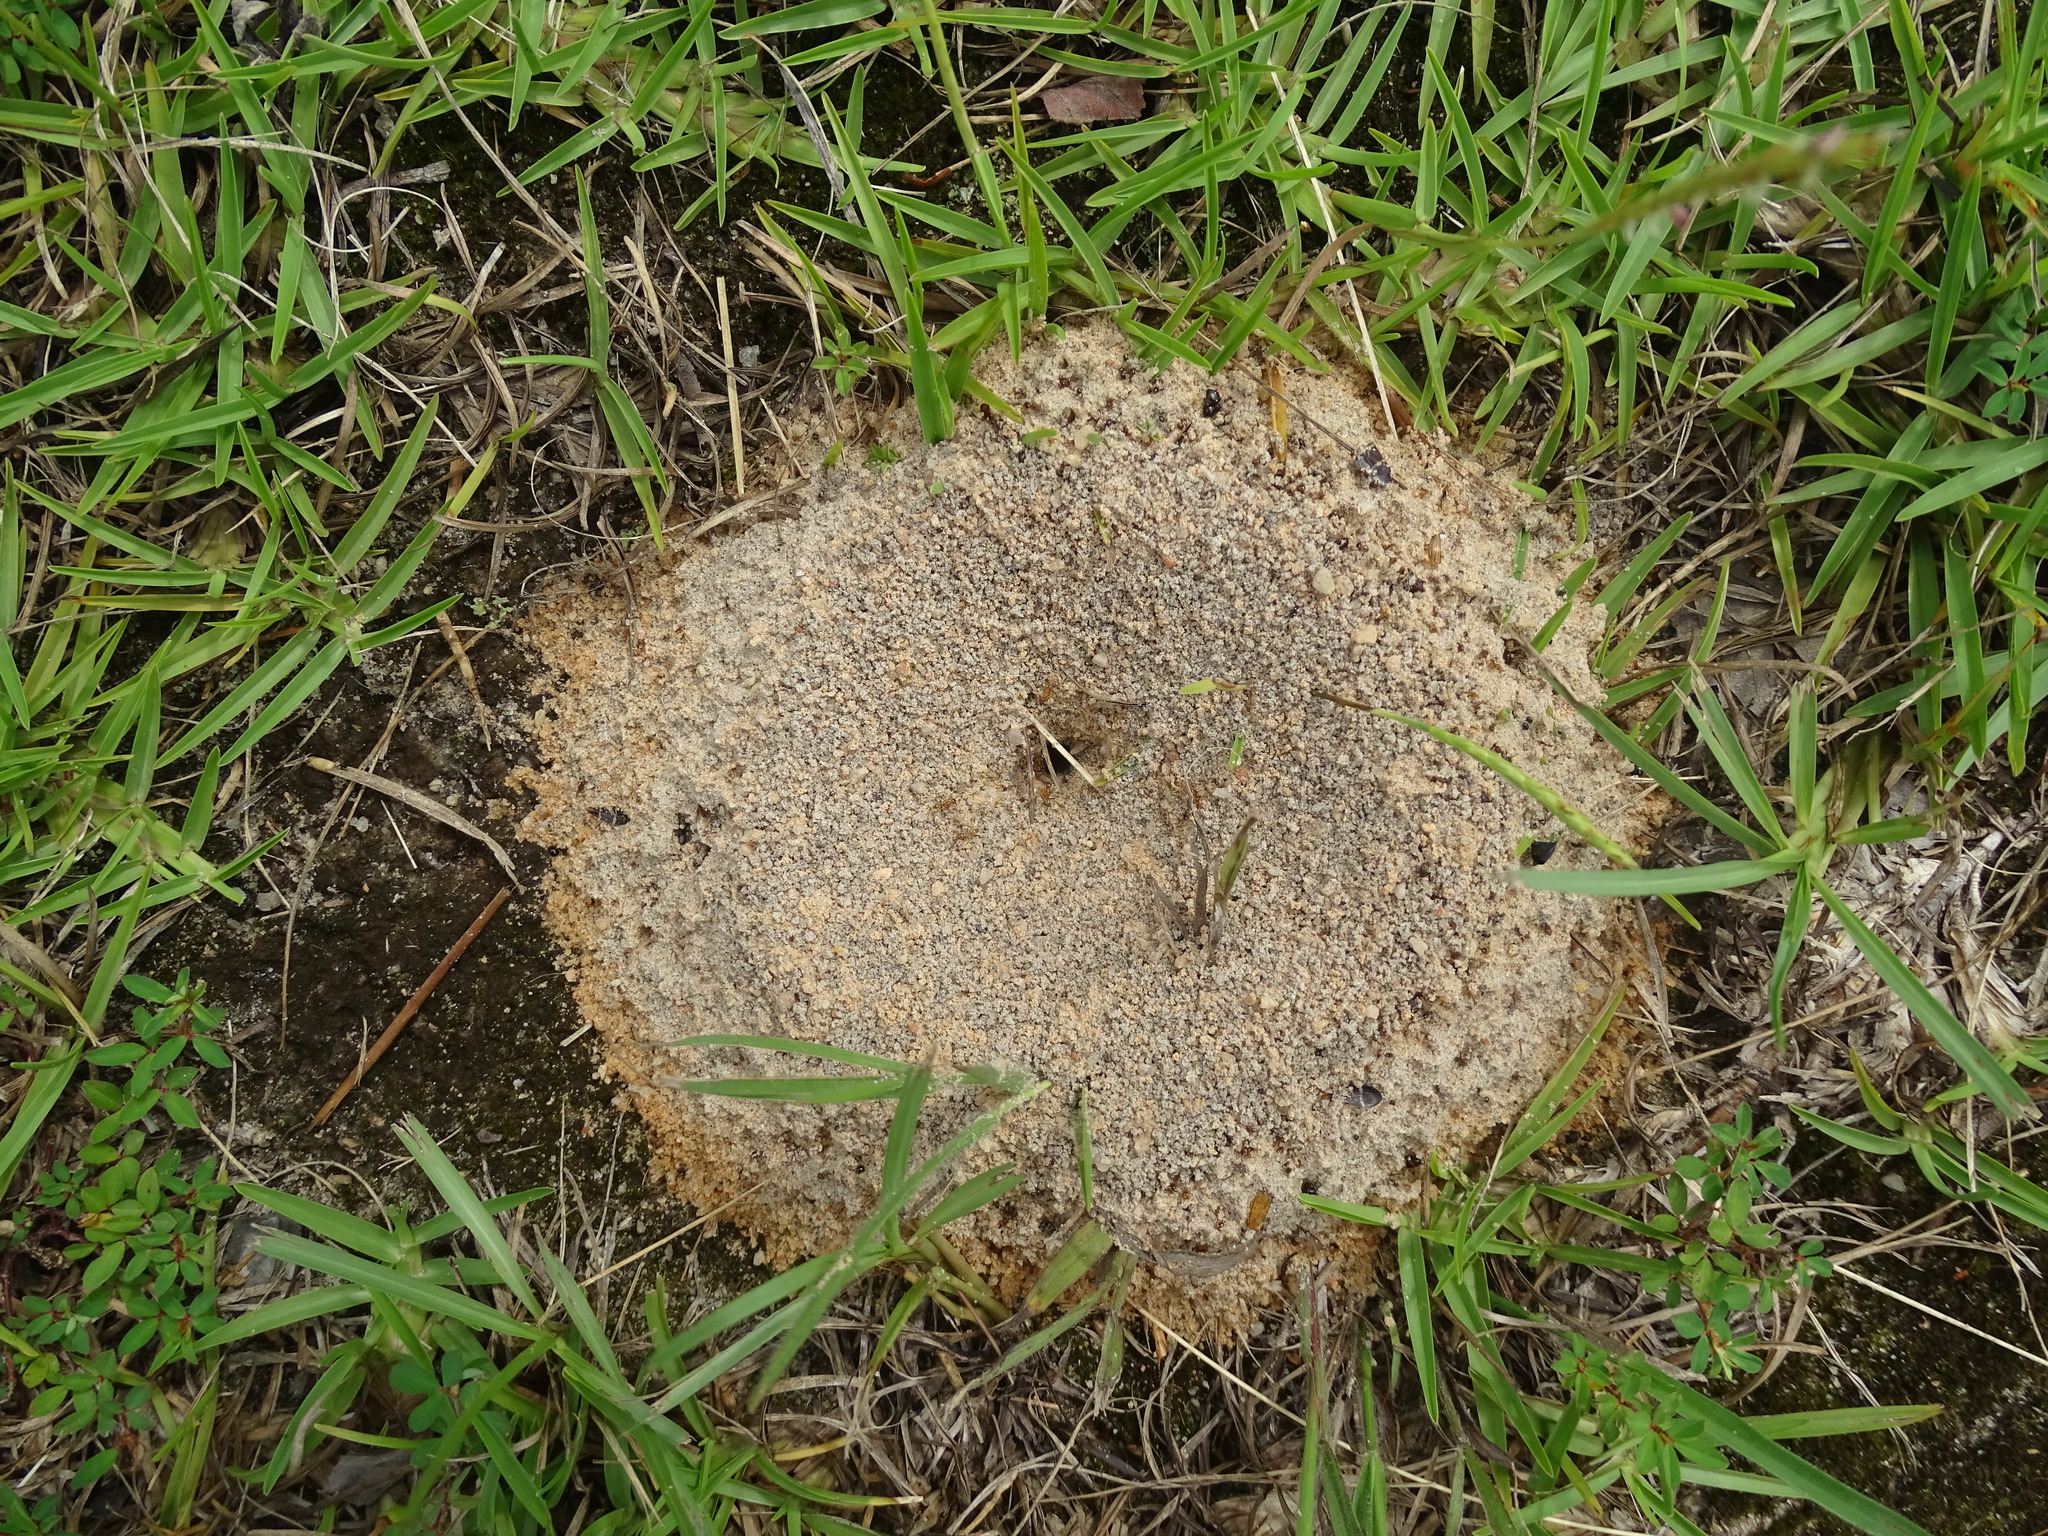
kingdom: Animalia
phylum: Arthropoda
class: Insecta
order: Hymenoptera
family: Formicidae
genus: Dorymyrmex
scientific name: Dorymyrmex bureni
